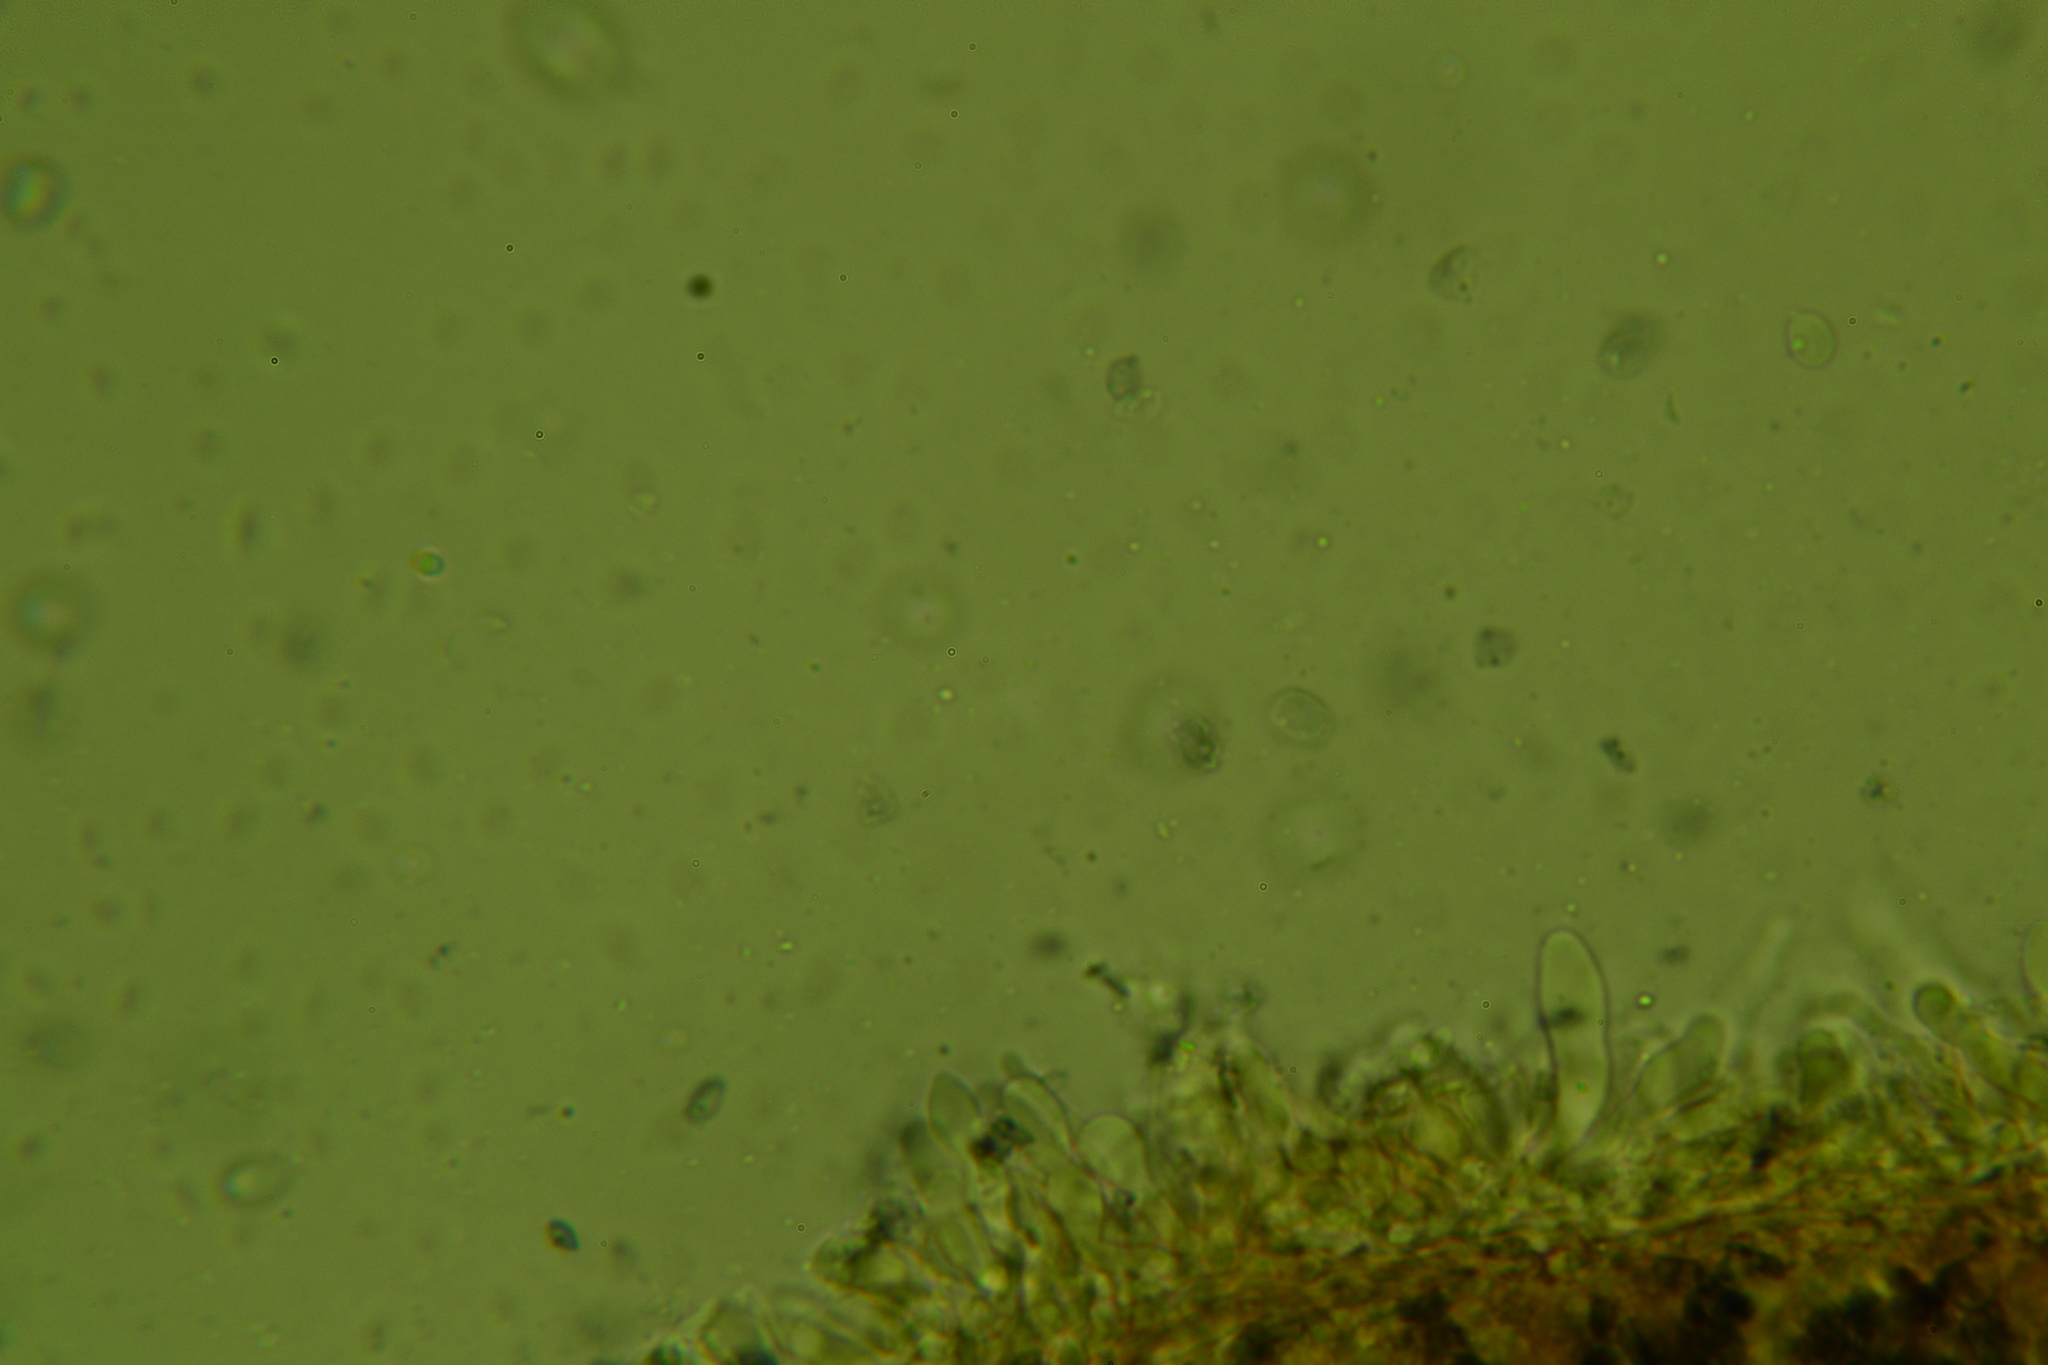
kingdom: Fungi
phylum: Basidiomycota
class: Agaricomycetes
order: Agaricales
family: Mycenaceae
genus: Mycena
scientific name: Mycena inclinata
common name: Clustered bonnet
